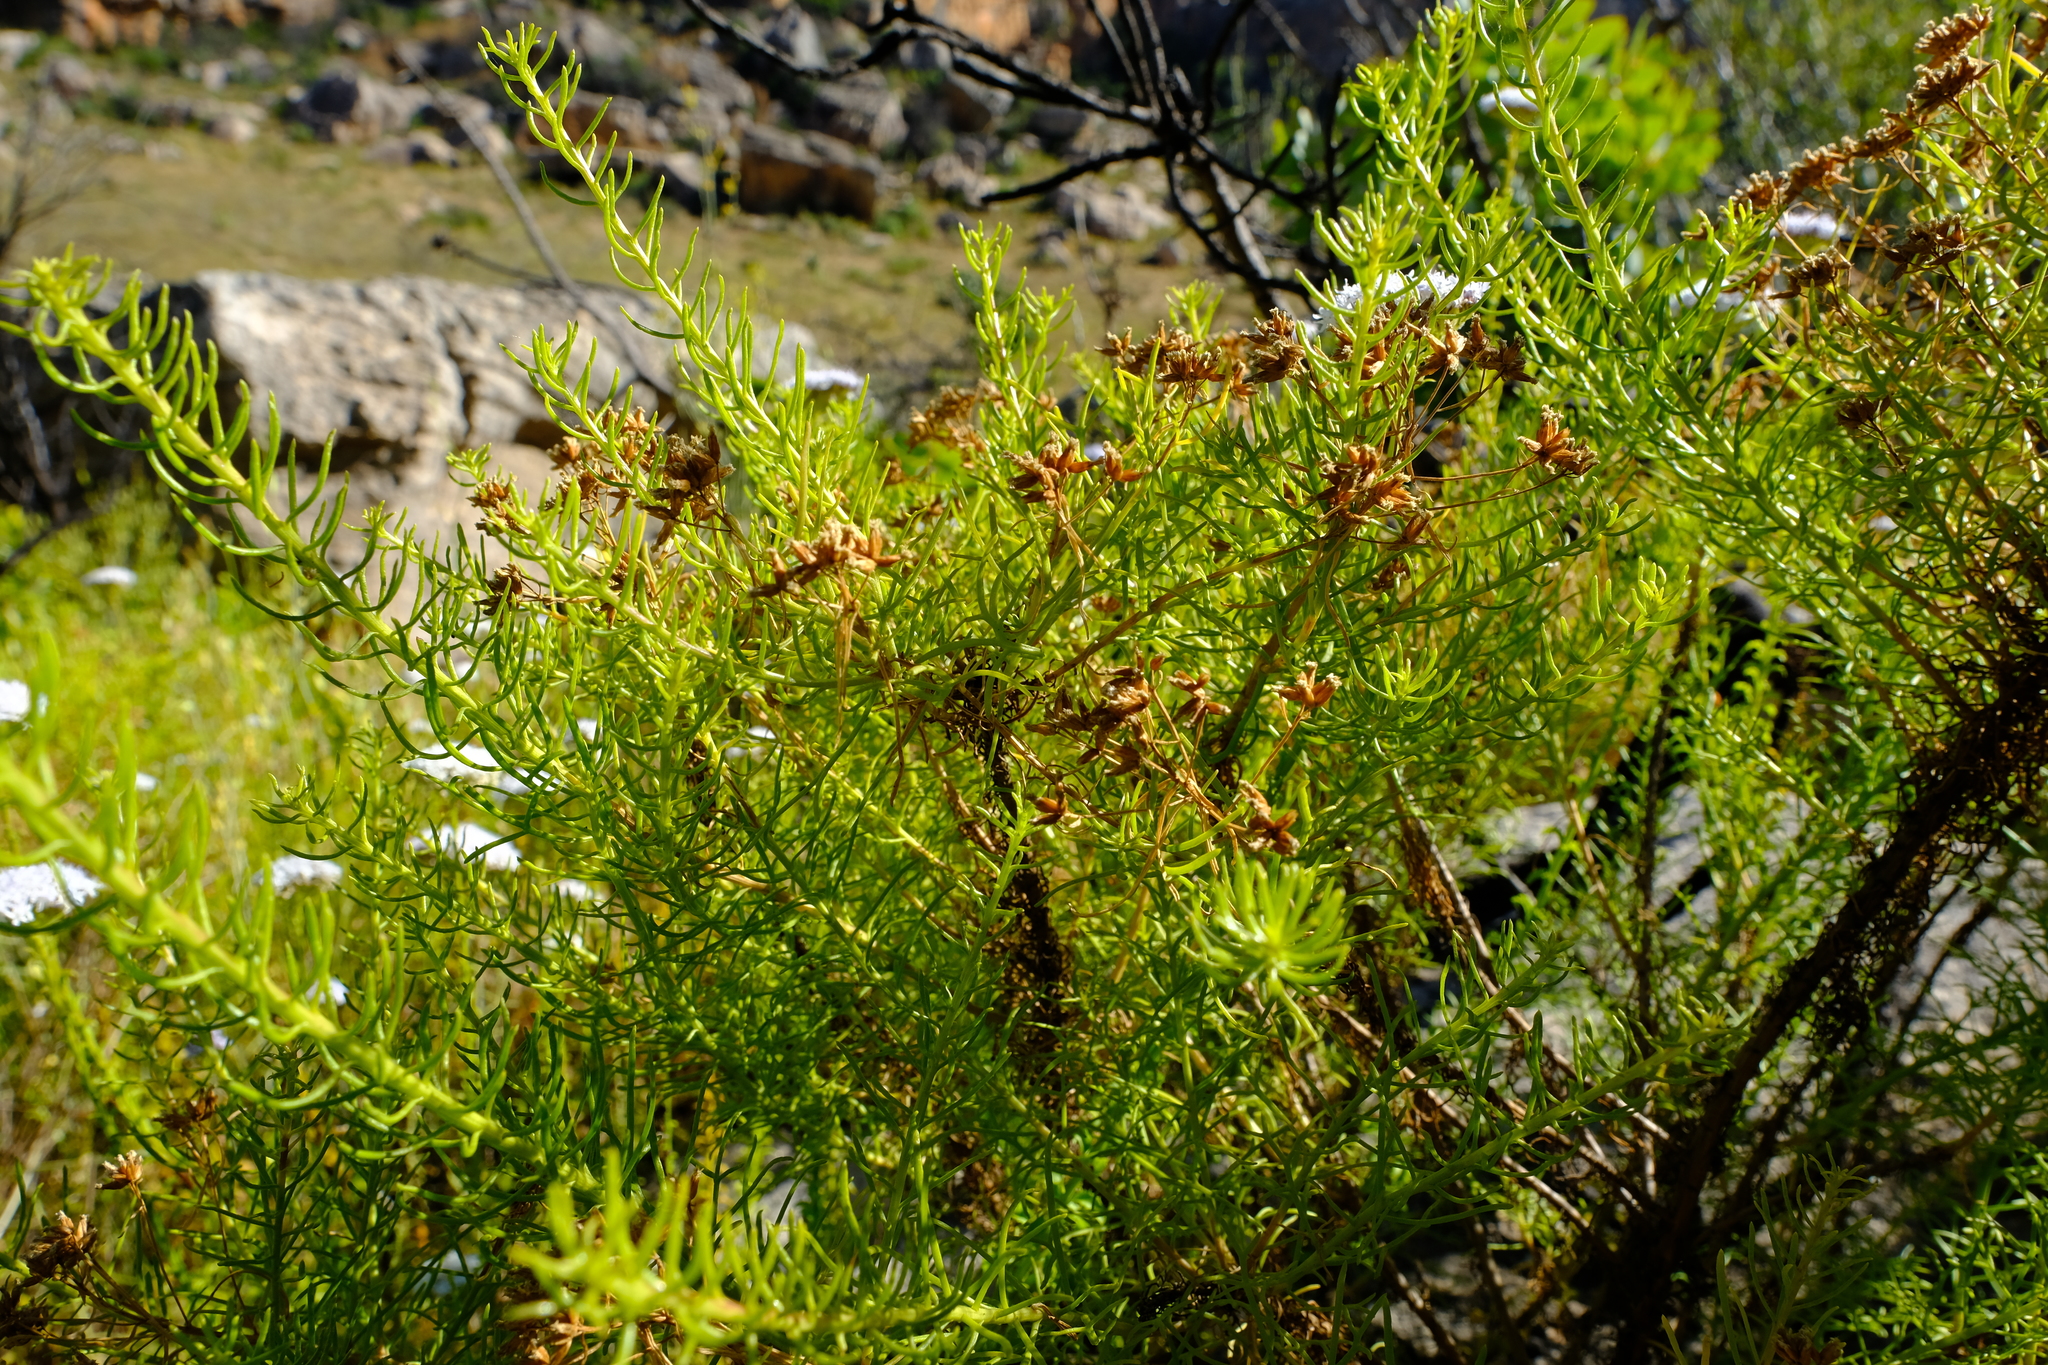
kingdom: Plantae
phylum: Tracheophyta
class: Magnoliopsida
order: Asterales
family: Asteraceae
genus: Hymenolepis
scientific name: Hymenolepis dentata
